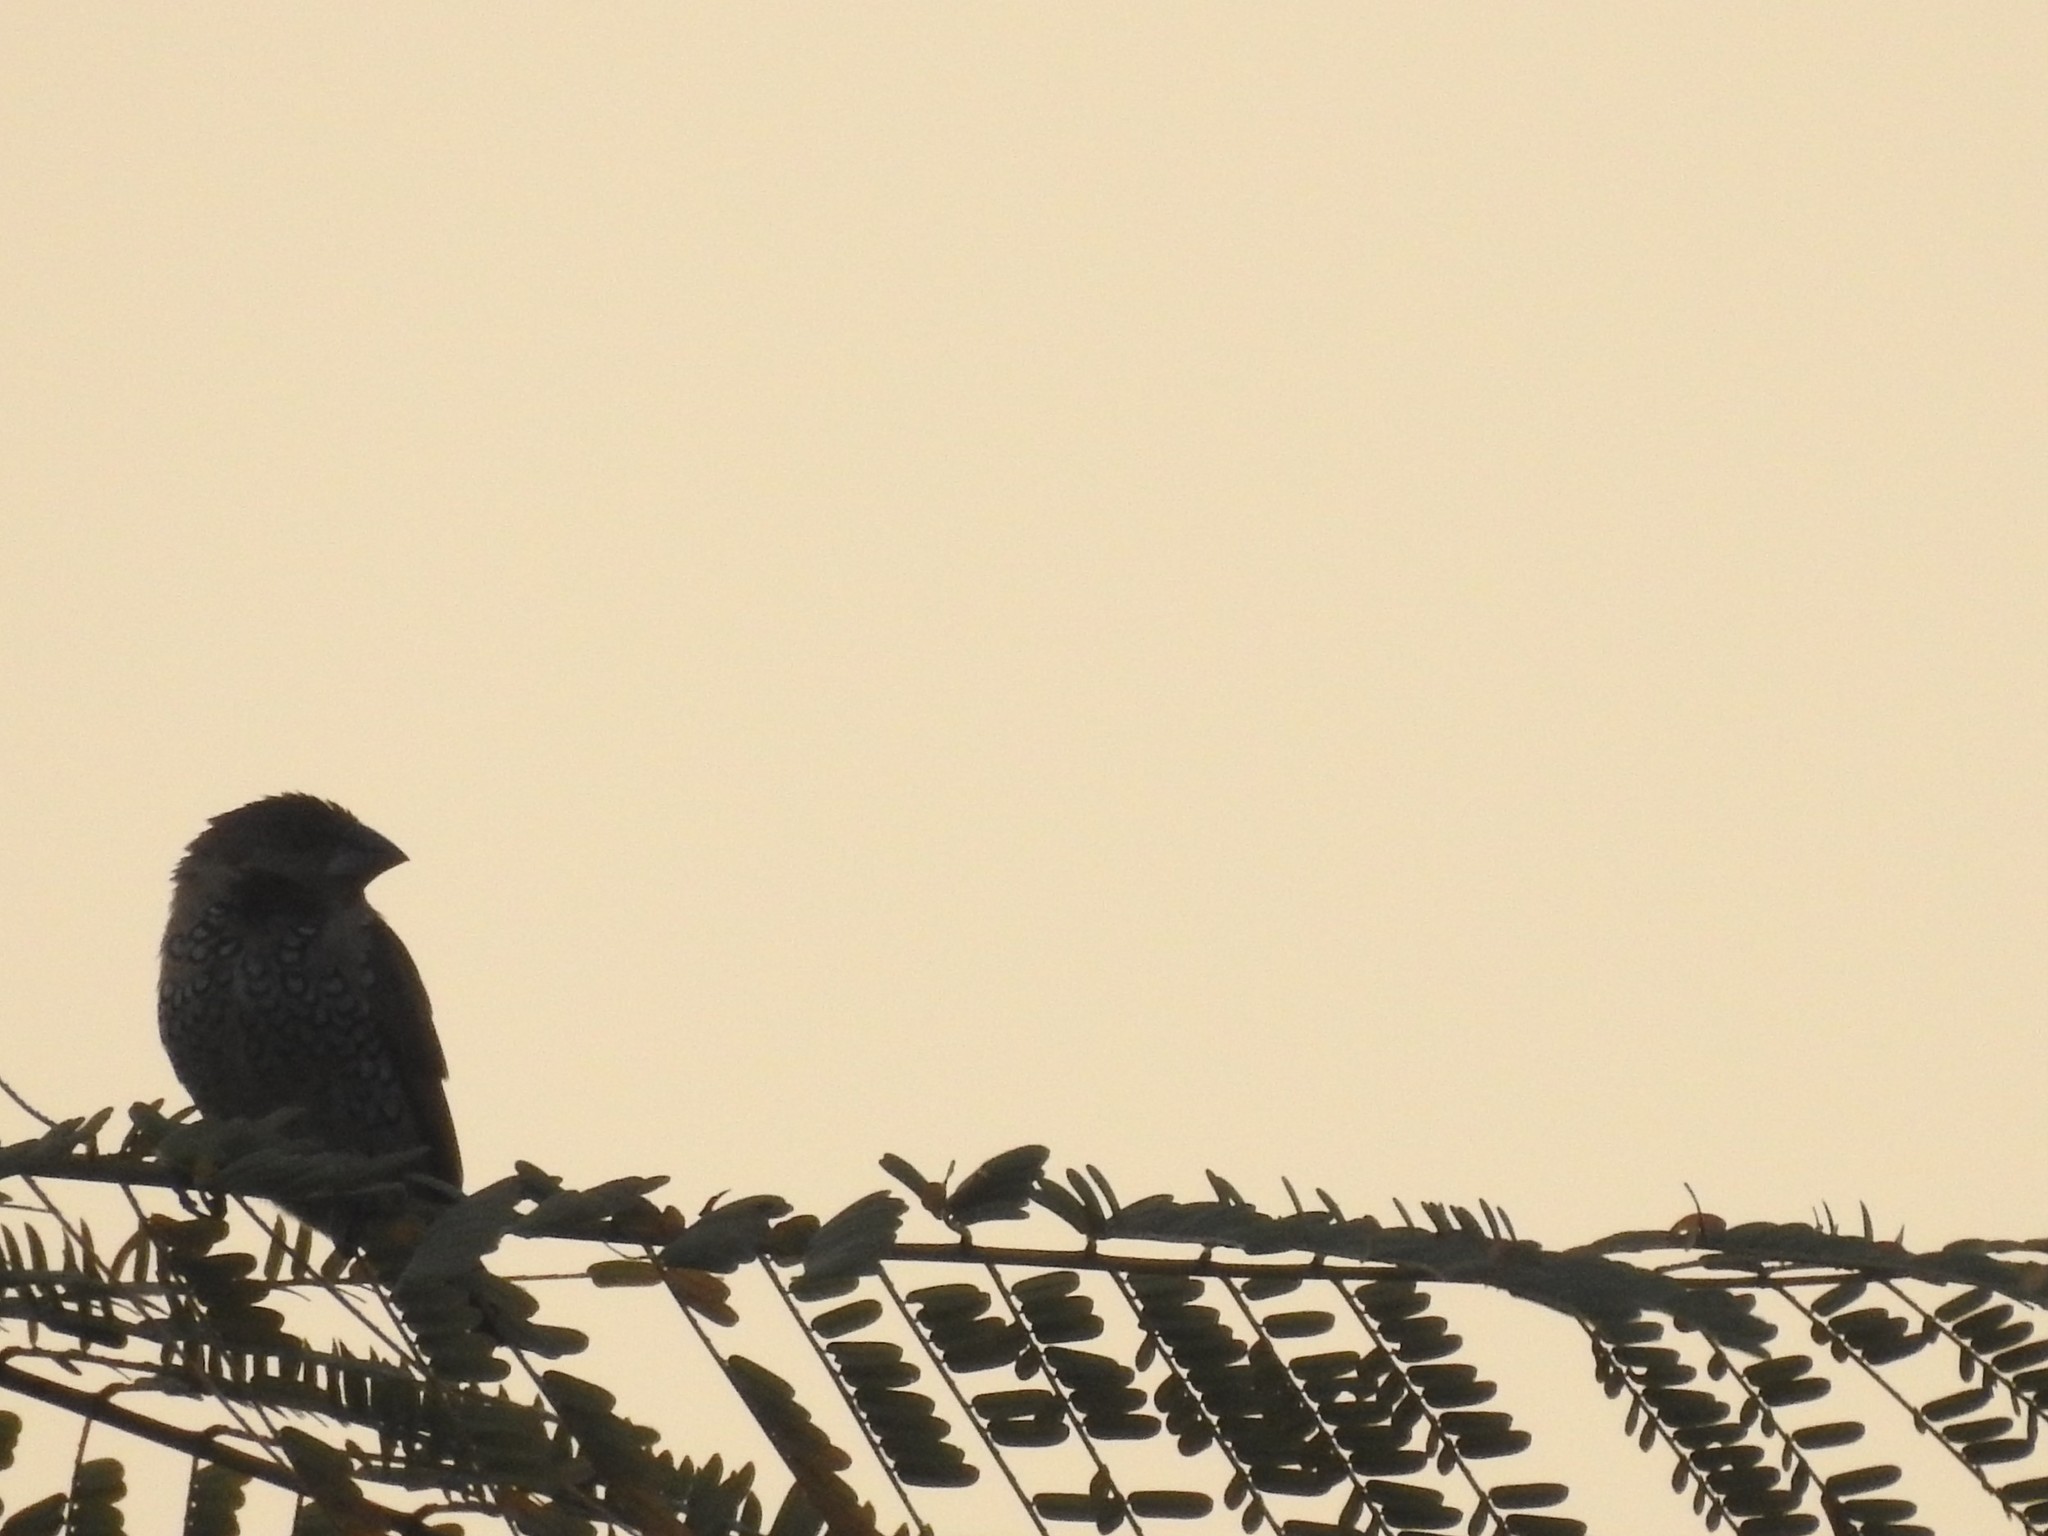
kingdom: Animalia
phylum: Chordata
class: Aves
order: Passeriformes
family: Estrildidae
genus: Lonchura
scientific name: Lonchura punctulata
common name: Scaly-breasted munia
